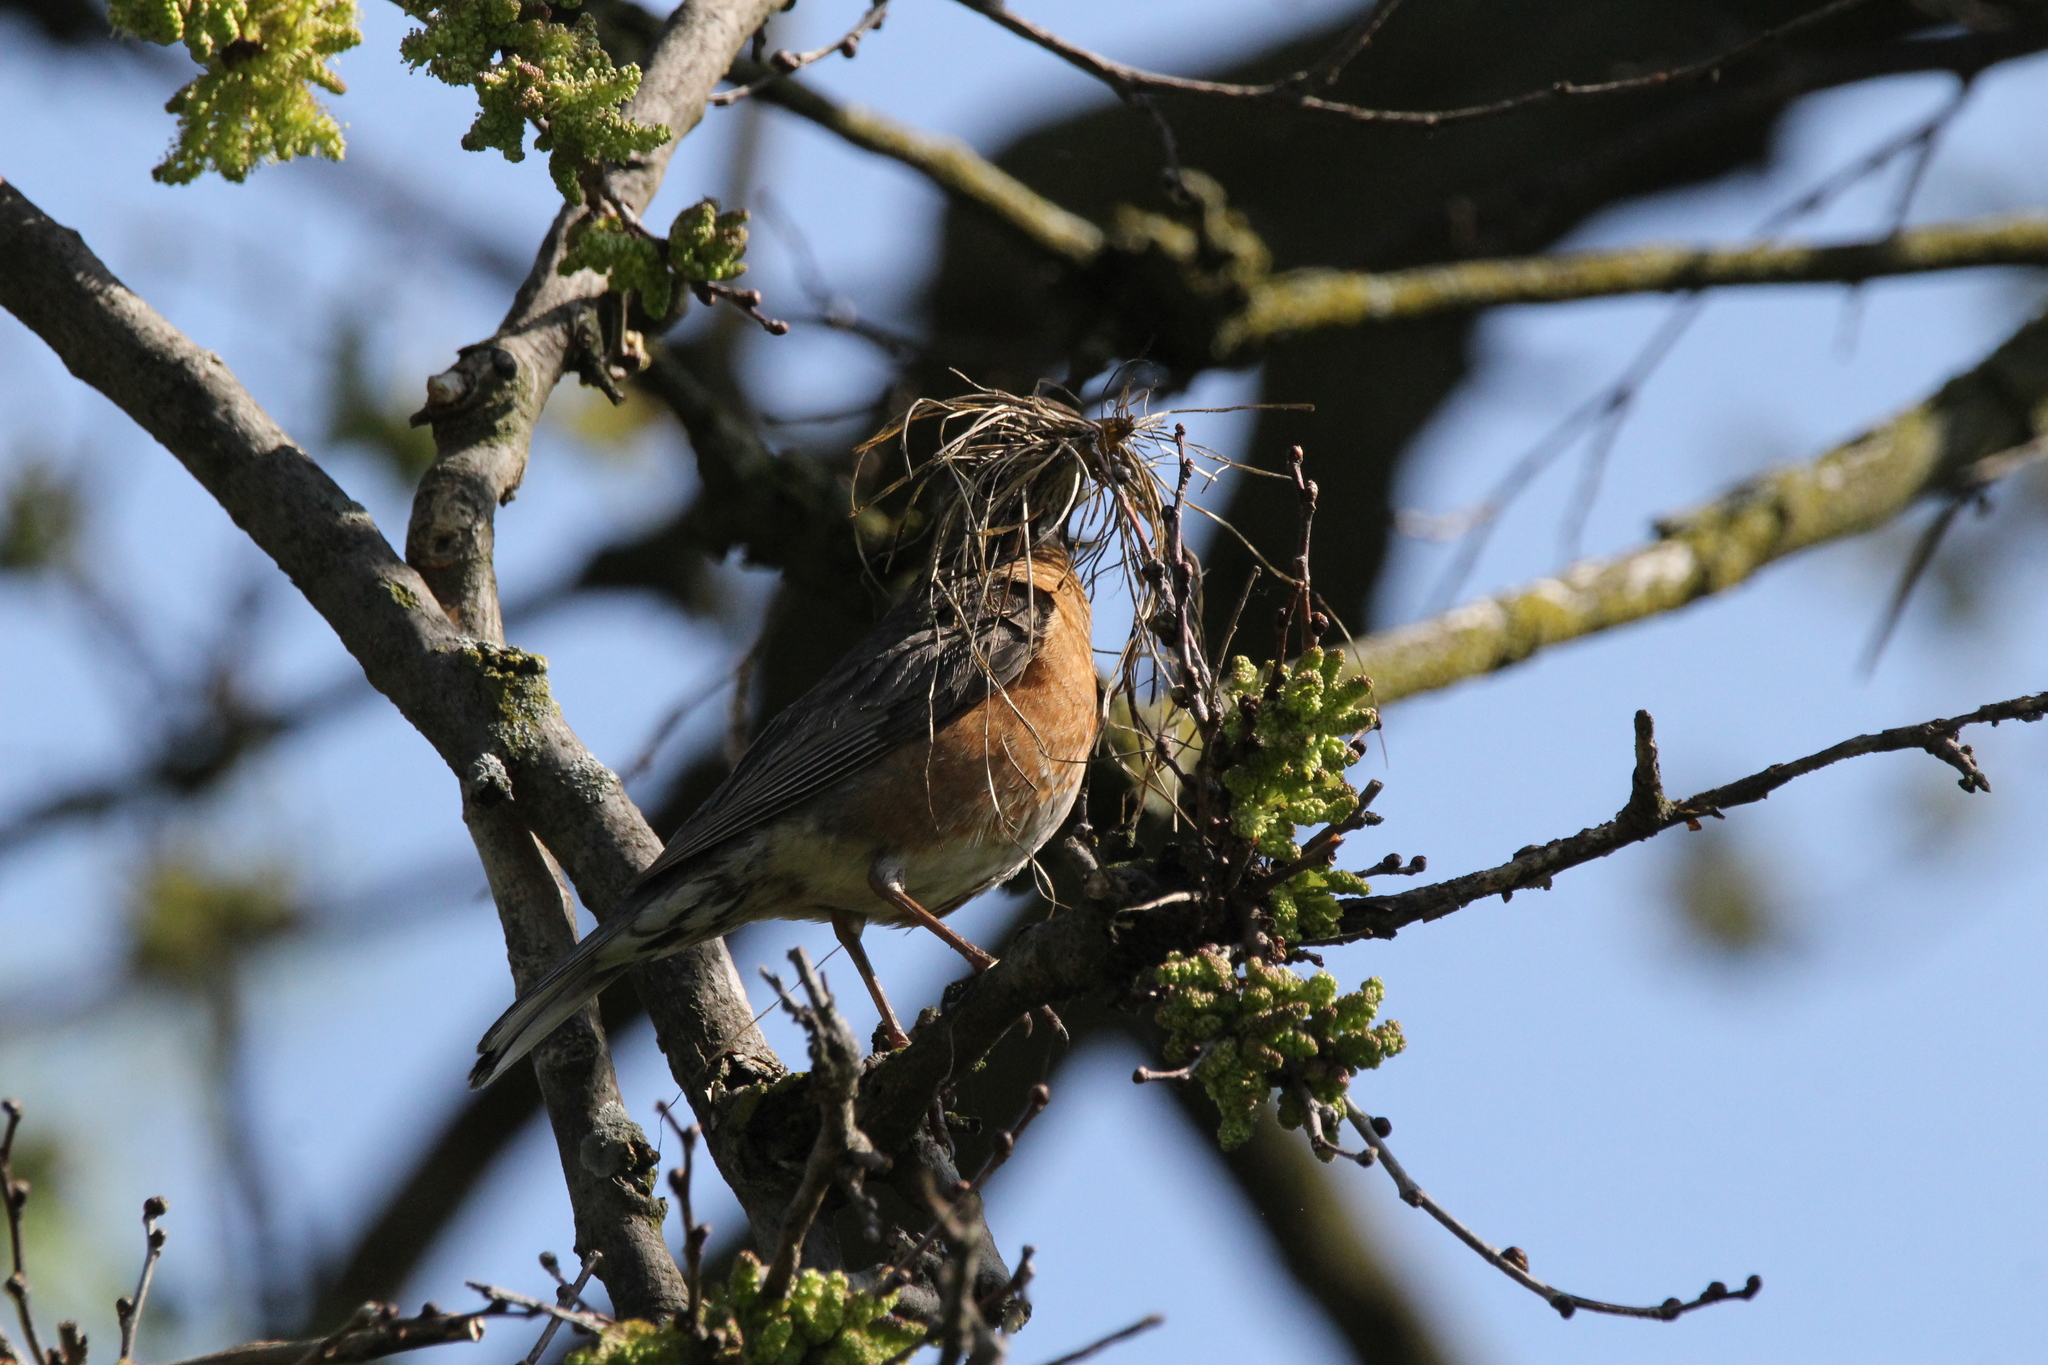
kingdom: Animalia
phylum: Chordata
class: Aves
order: Passeriformes
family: Turdidae
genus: Turdus
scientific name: Turdus migratorius
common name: American robin
